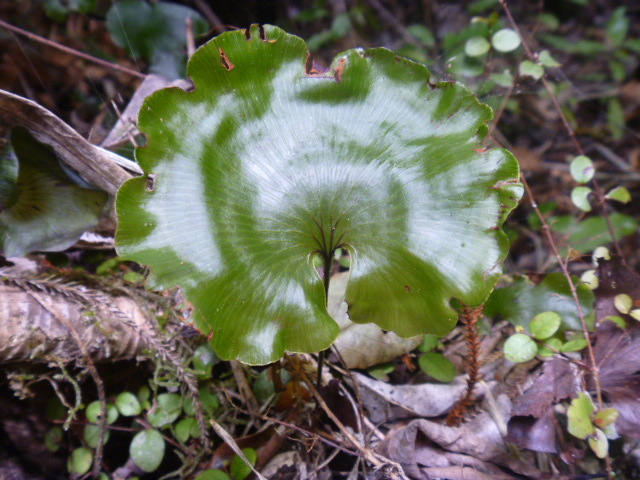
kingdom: Plantae
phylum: Tracheophyta
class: Polypodiopsida
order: Hymenophyllales
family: Hymenophyllaceae
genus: Hymenophyllum
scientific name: Hymenophyllum nephrophyllum
